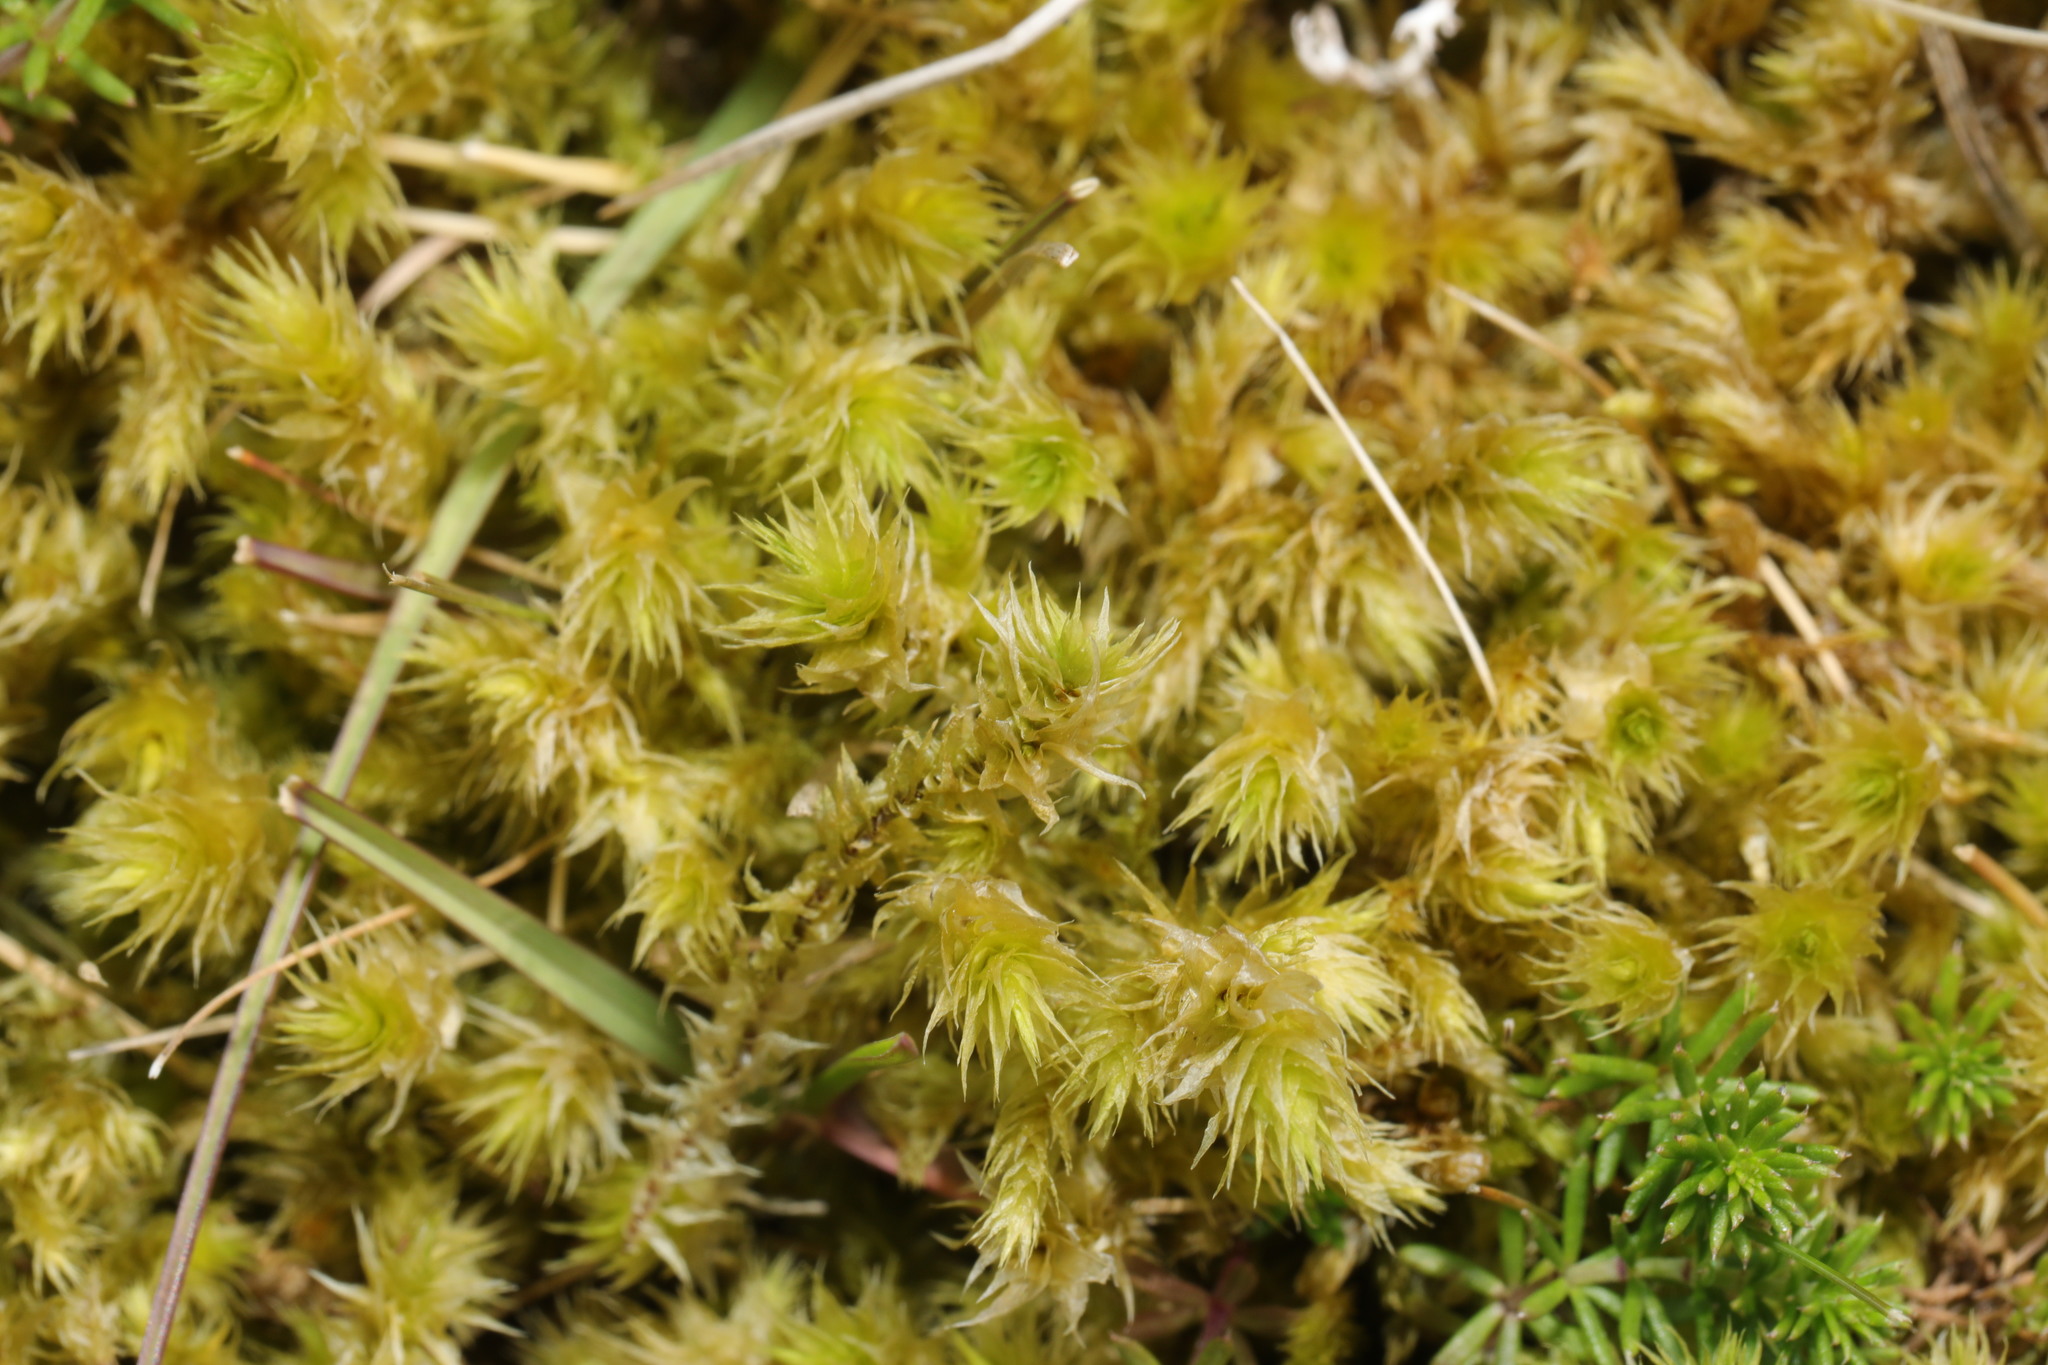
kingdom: Plantae
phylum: Bryophyta
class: Bryopsida
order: Hypnales
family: Hylocomiaceae
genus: Hylocomiadelphus
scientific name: Hylocomiadelphus triquetrus
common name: Rough goose neck moss
